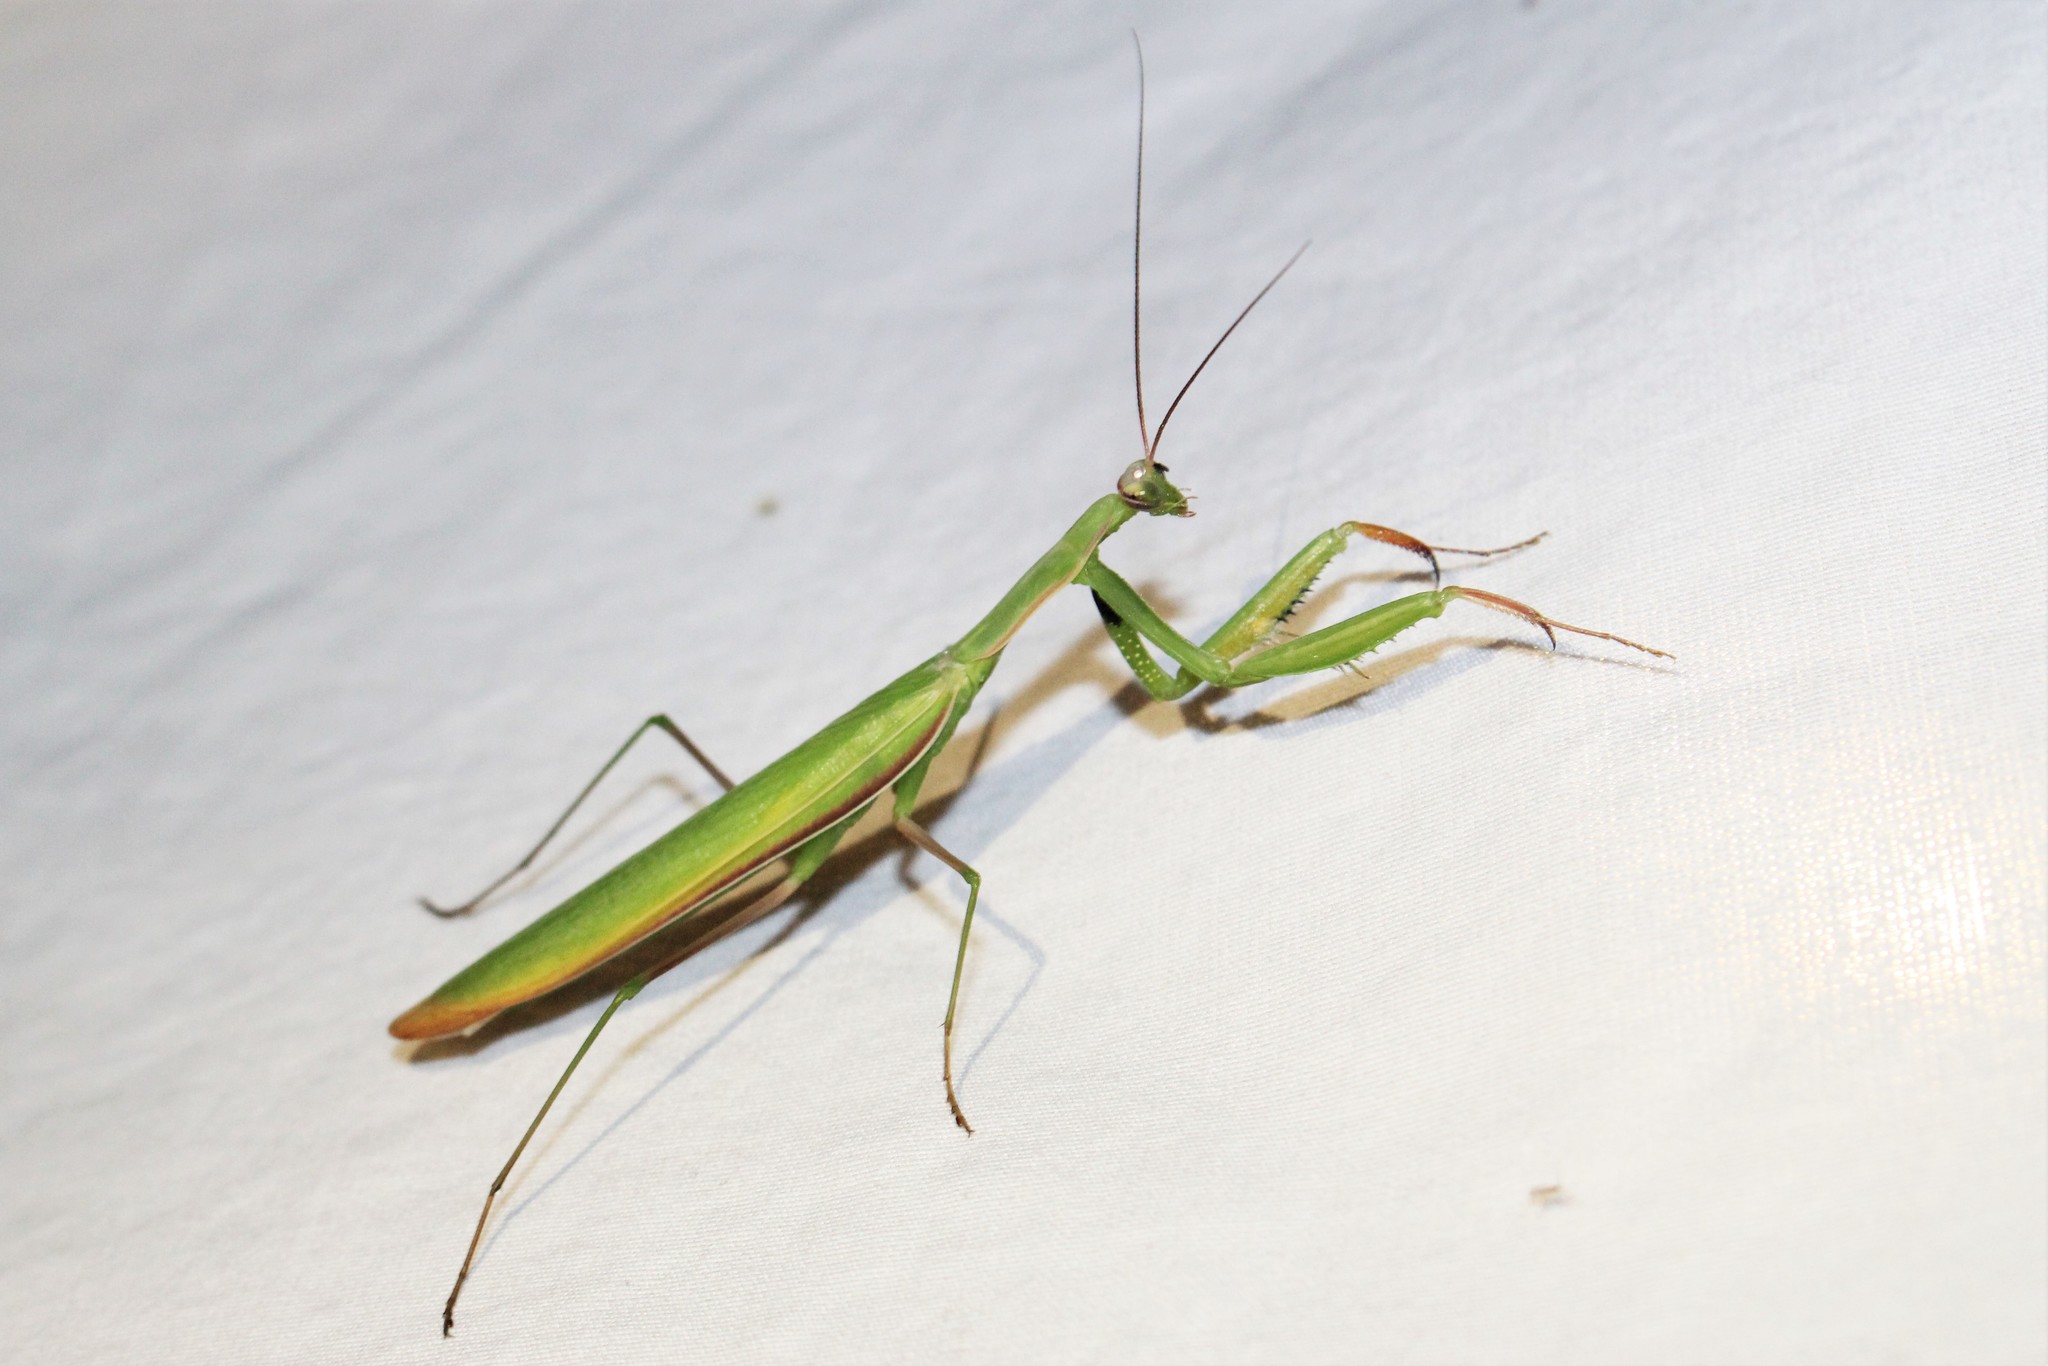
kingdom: Animalia
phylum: Arthropoda
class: Insecta
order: Mantodea
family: Mantidae
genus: Mantis
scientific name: Mantis religiosa
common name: Praying mantis
